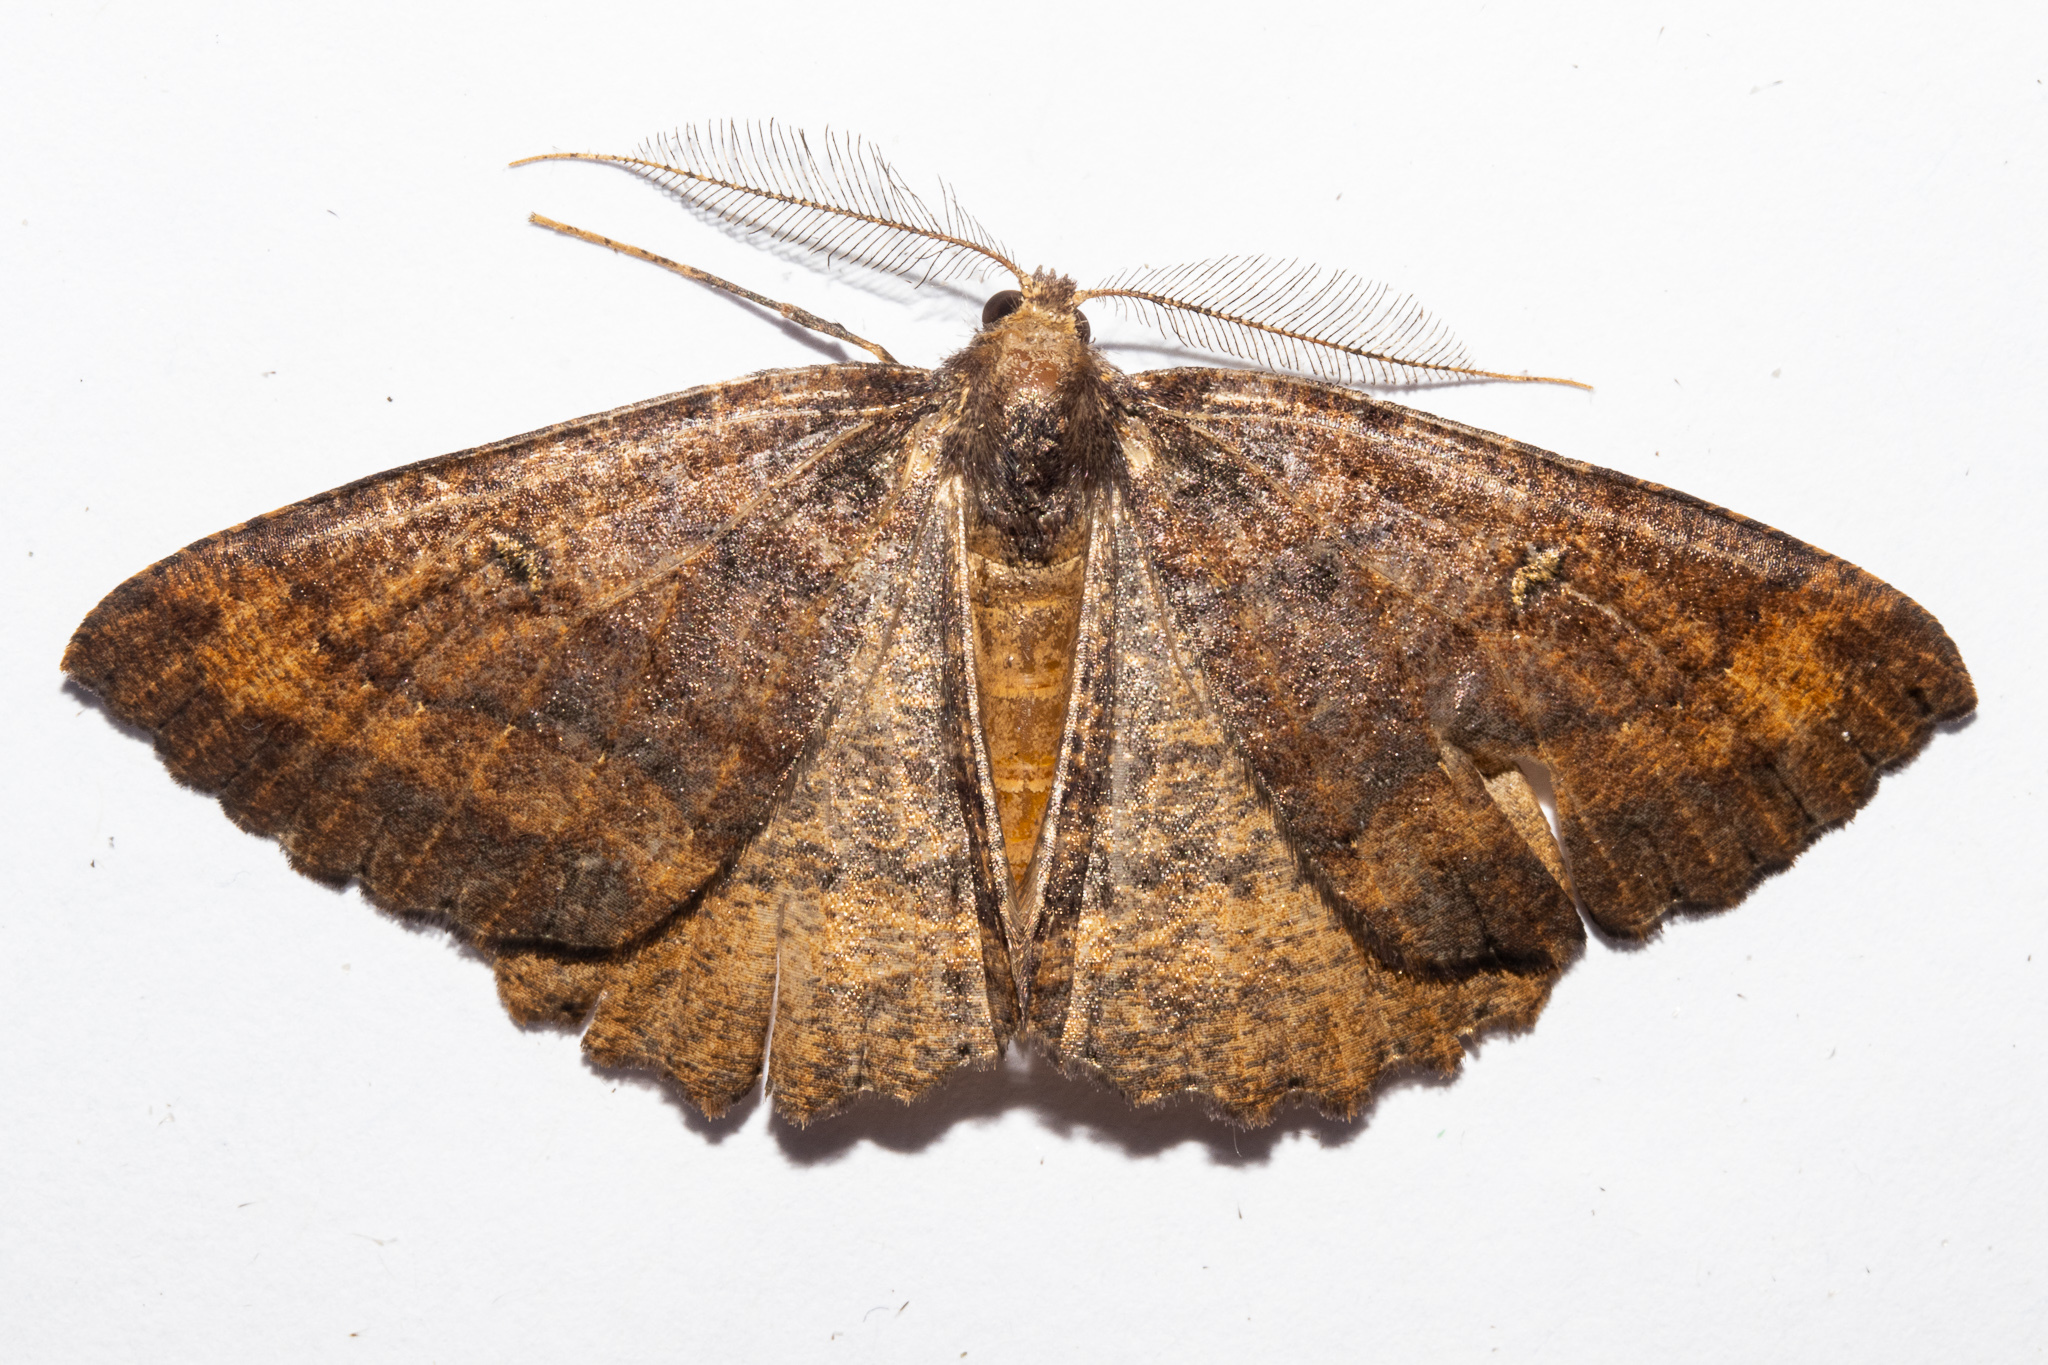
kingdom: Animalia
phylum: Arthropoda
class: Insecta
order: Lepidoptera
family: Geometridae
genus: Cleora
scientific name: Cleora scriptaria
